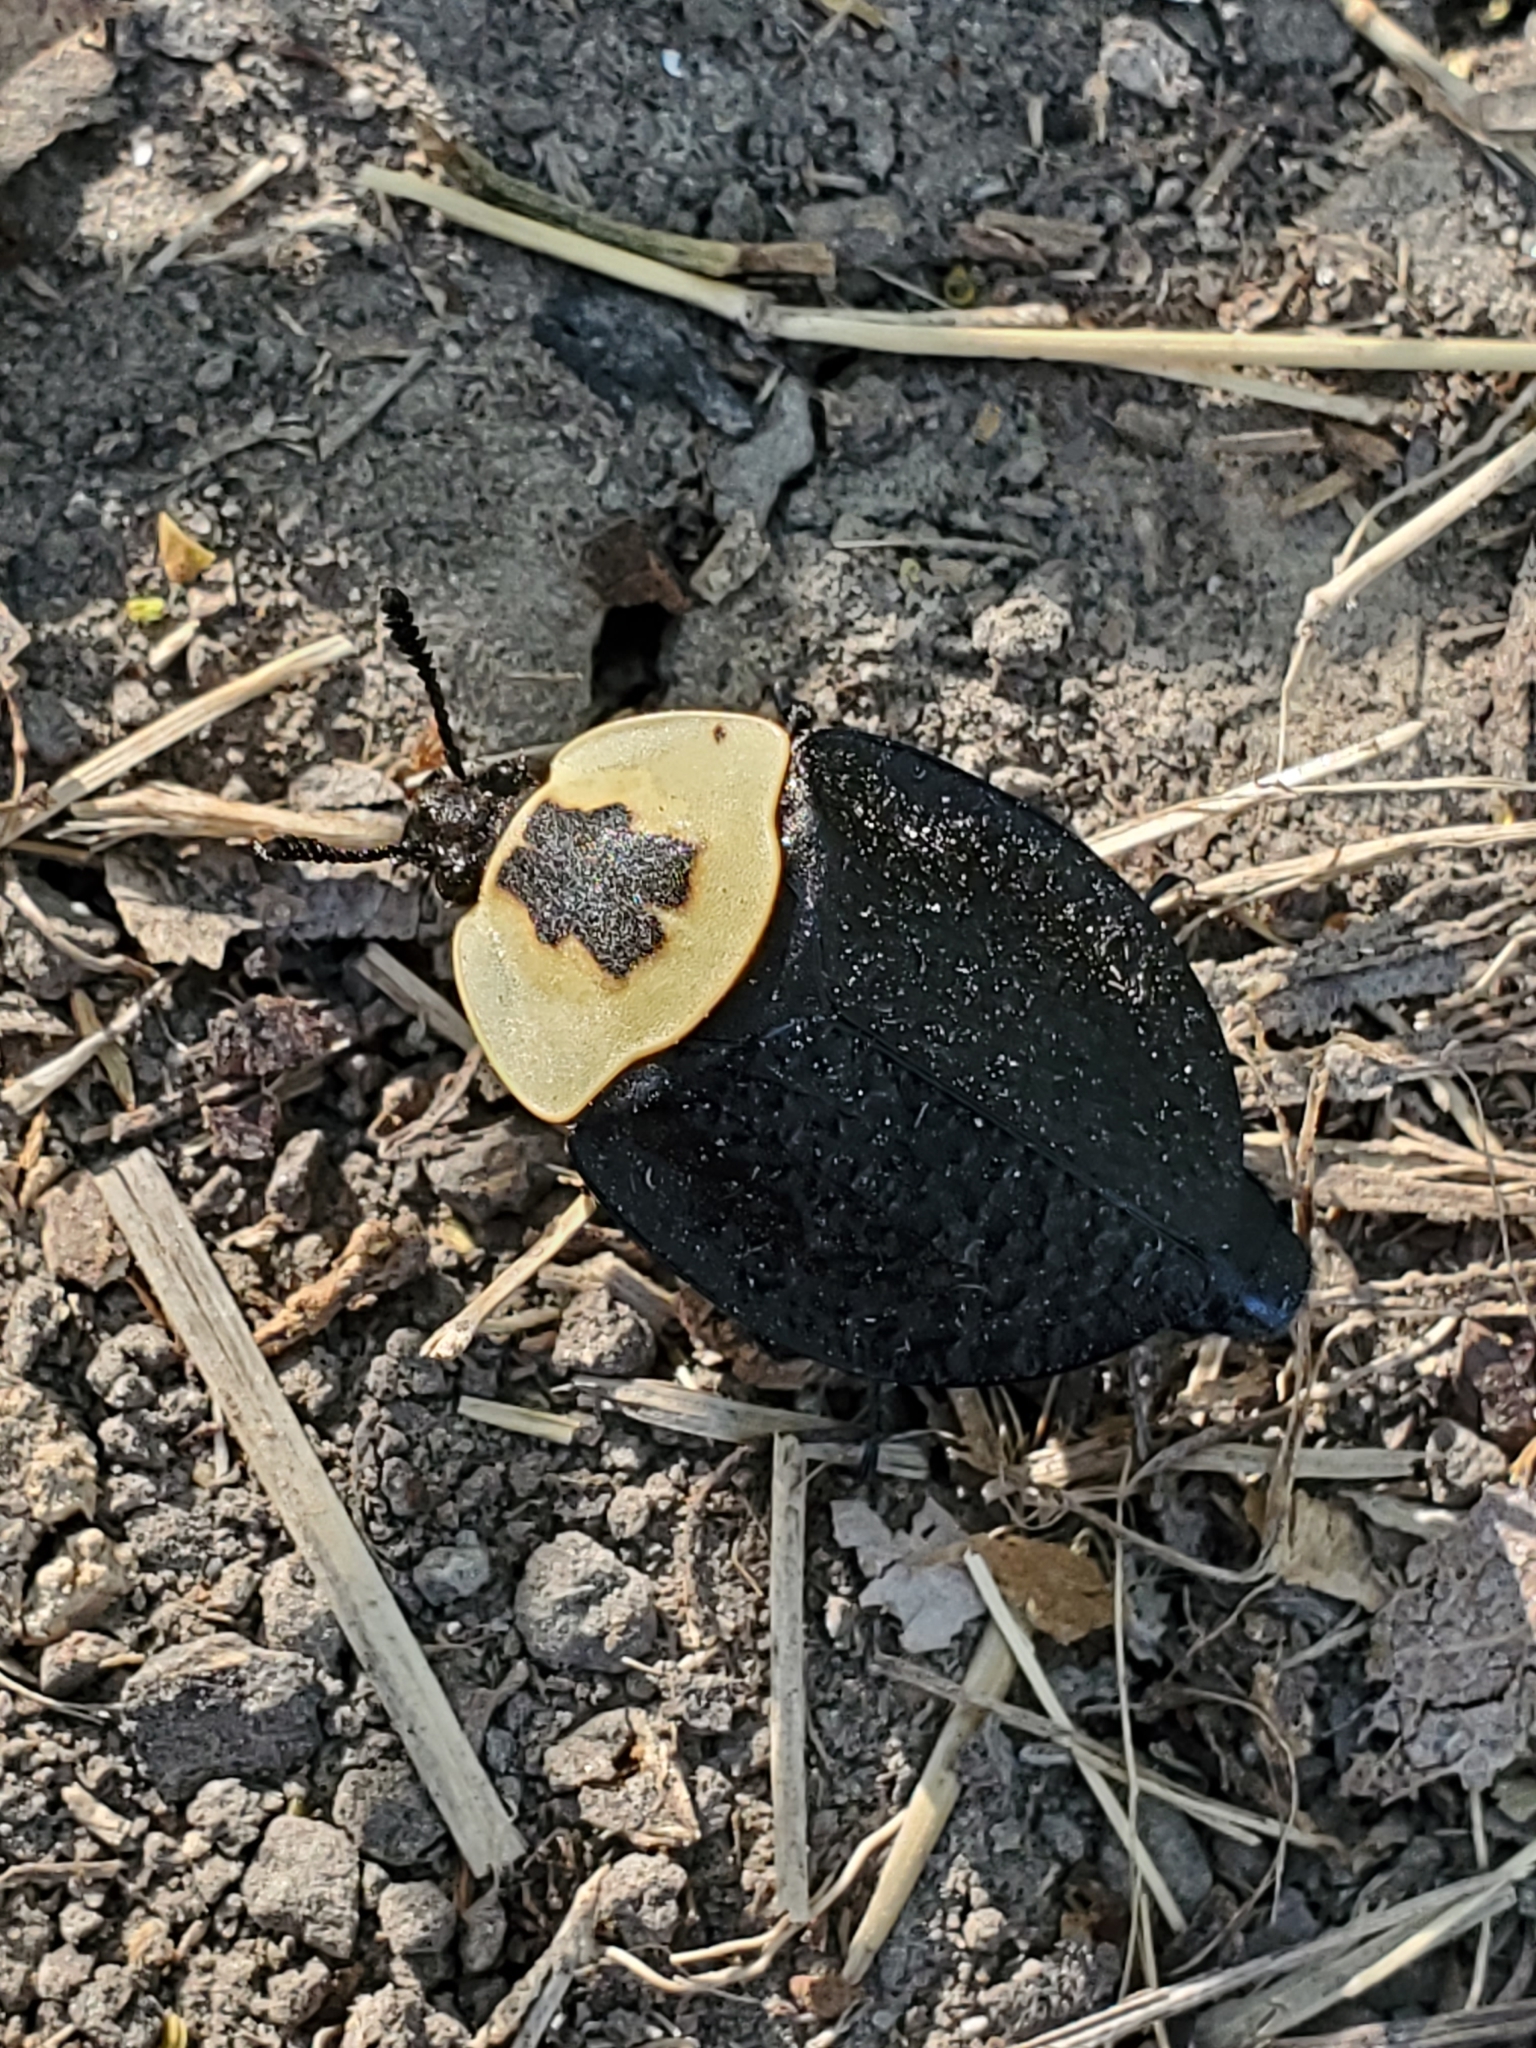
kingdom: Animalia
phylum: Arthropoda
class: Insecta
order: Coleoptera
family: Staphylinidae
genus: Necrophila
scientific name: Necrophila americana
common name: American carrion beetle
